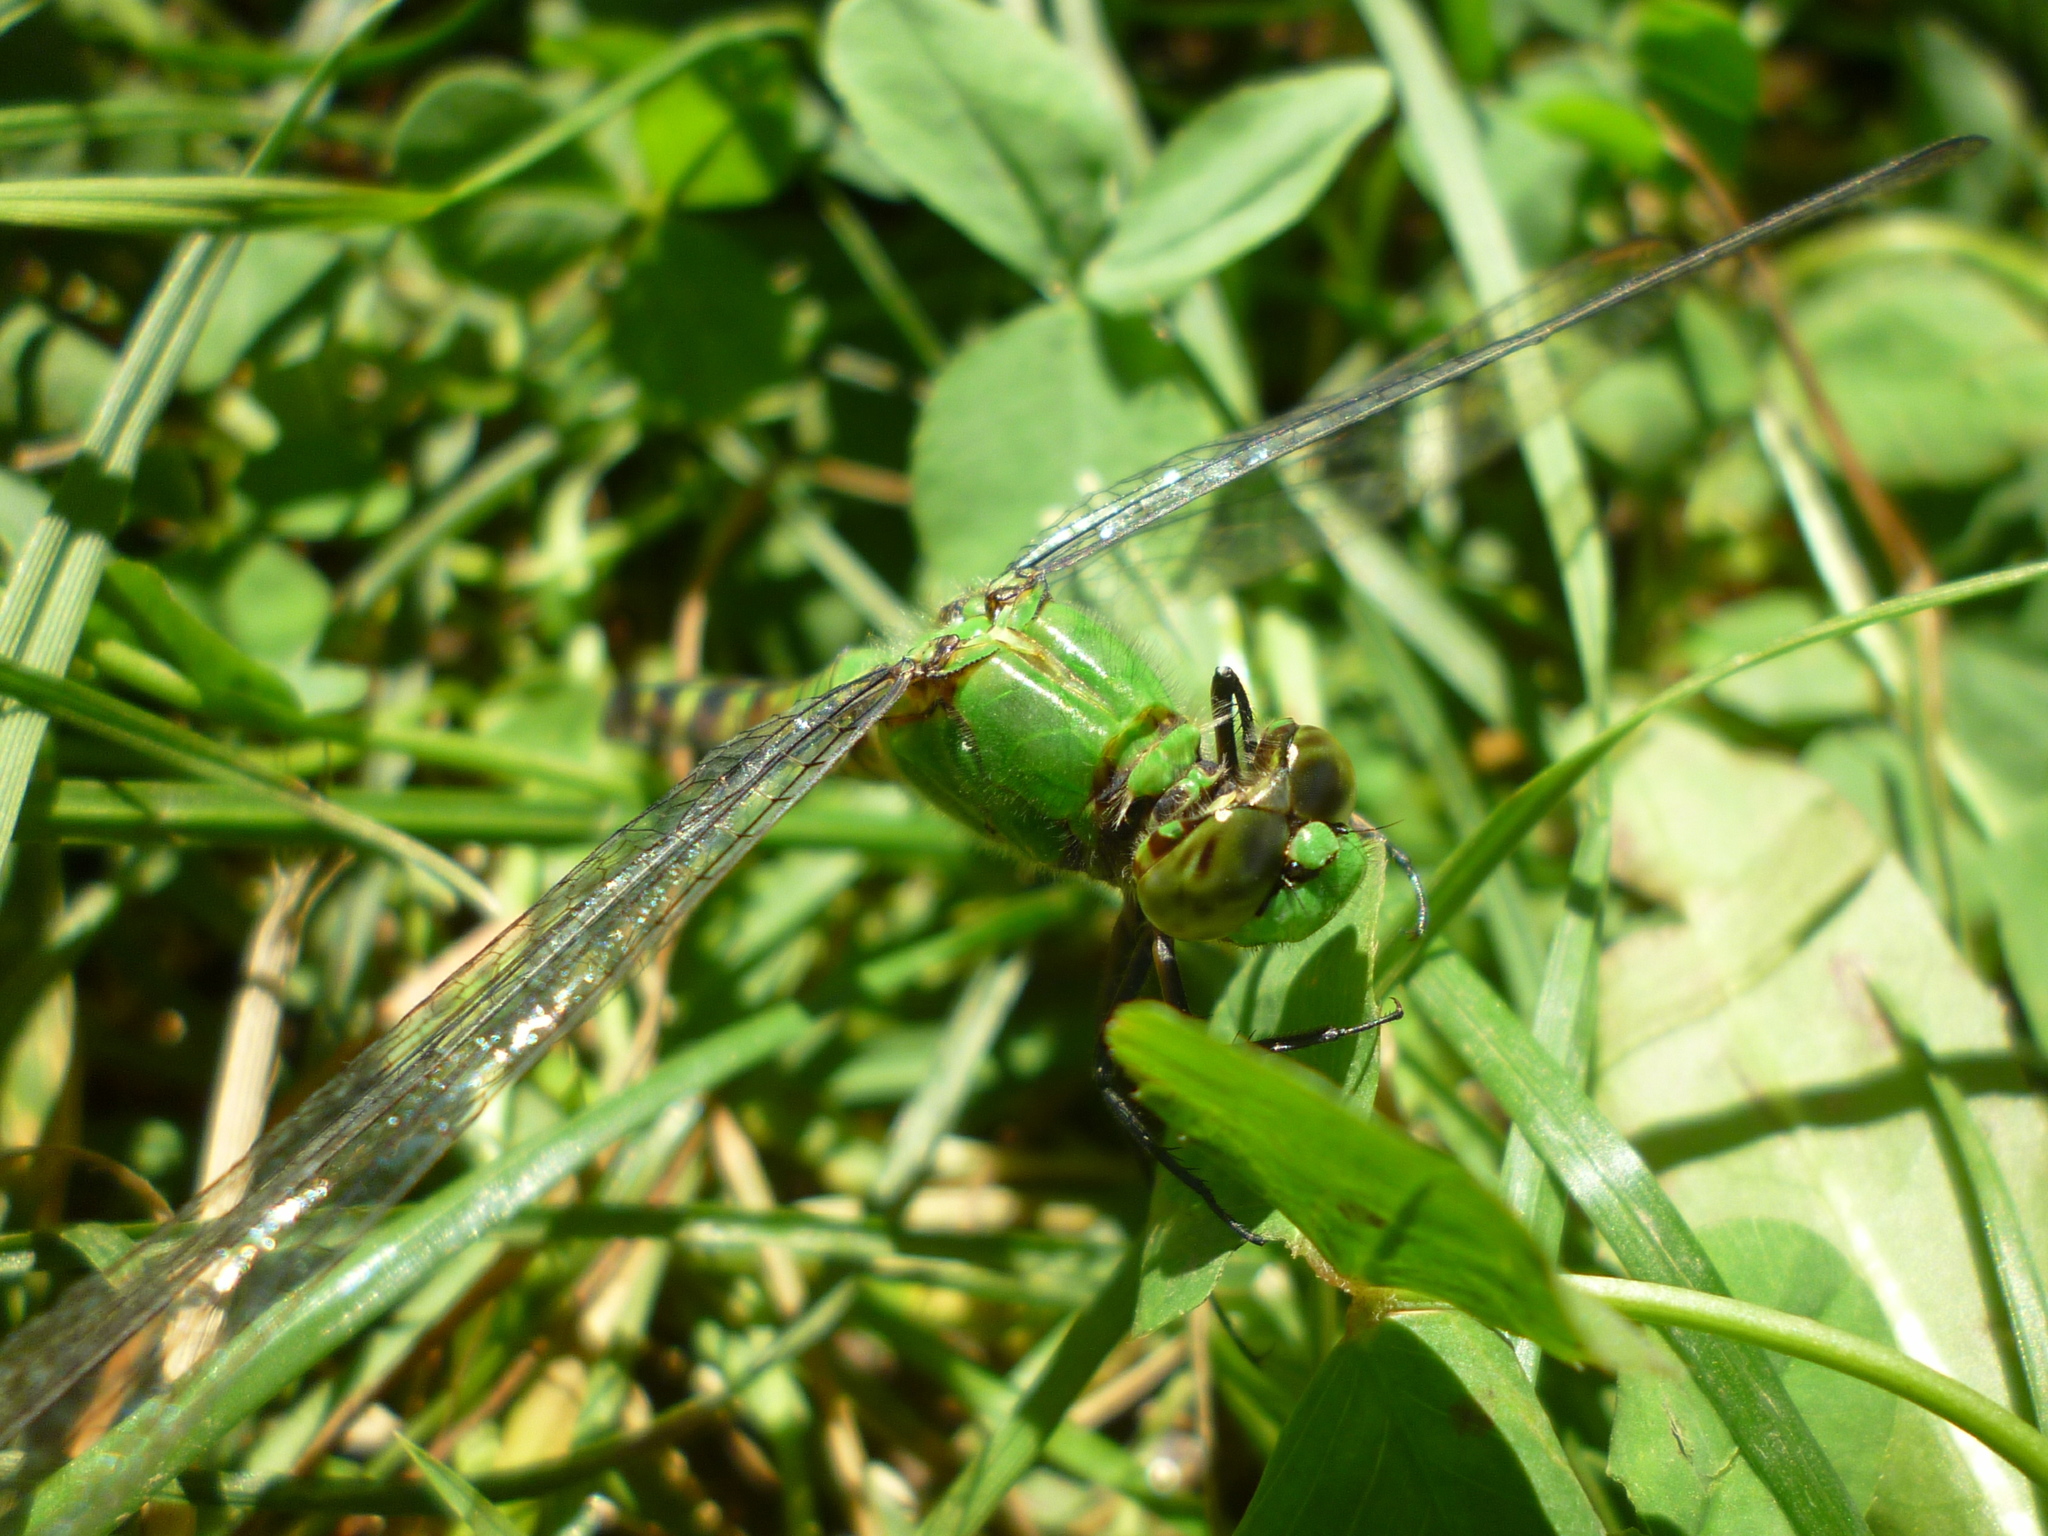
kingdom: Animalia
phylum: Arthropoda
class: Insecta
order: Odonata
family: Libellulidae
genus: Erythemis
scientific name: Erythemis simplicicollis
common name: Eastern pondhawk
